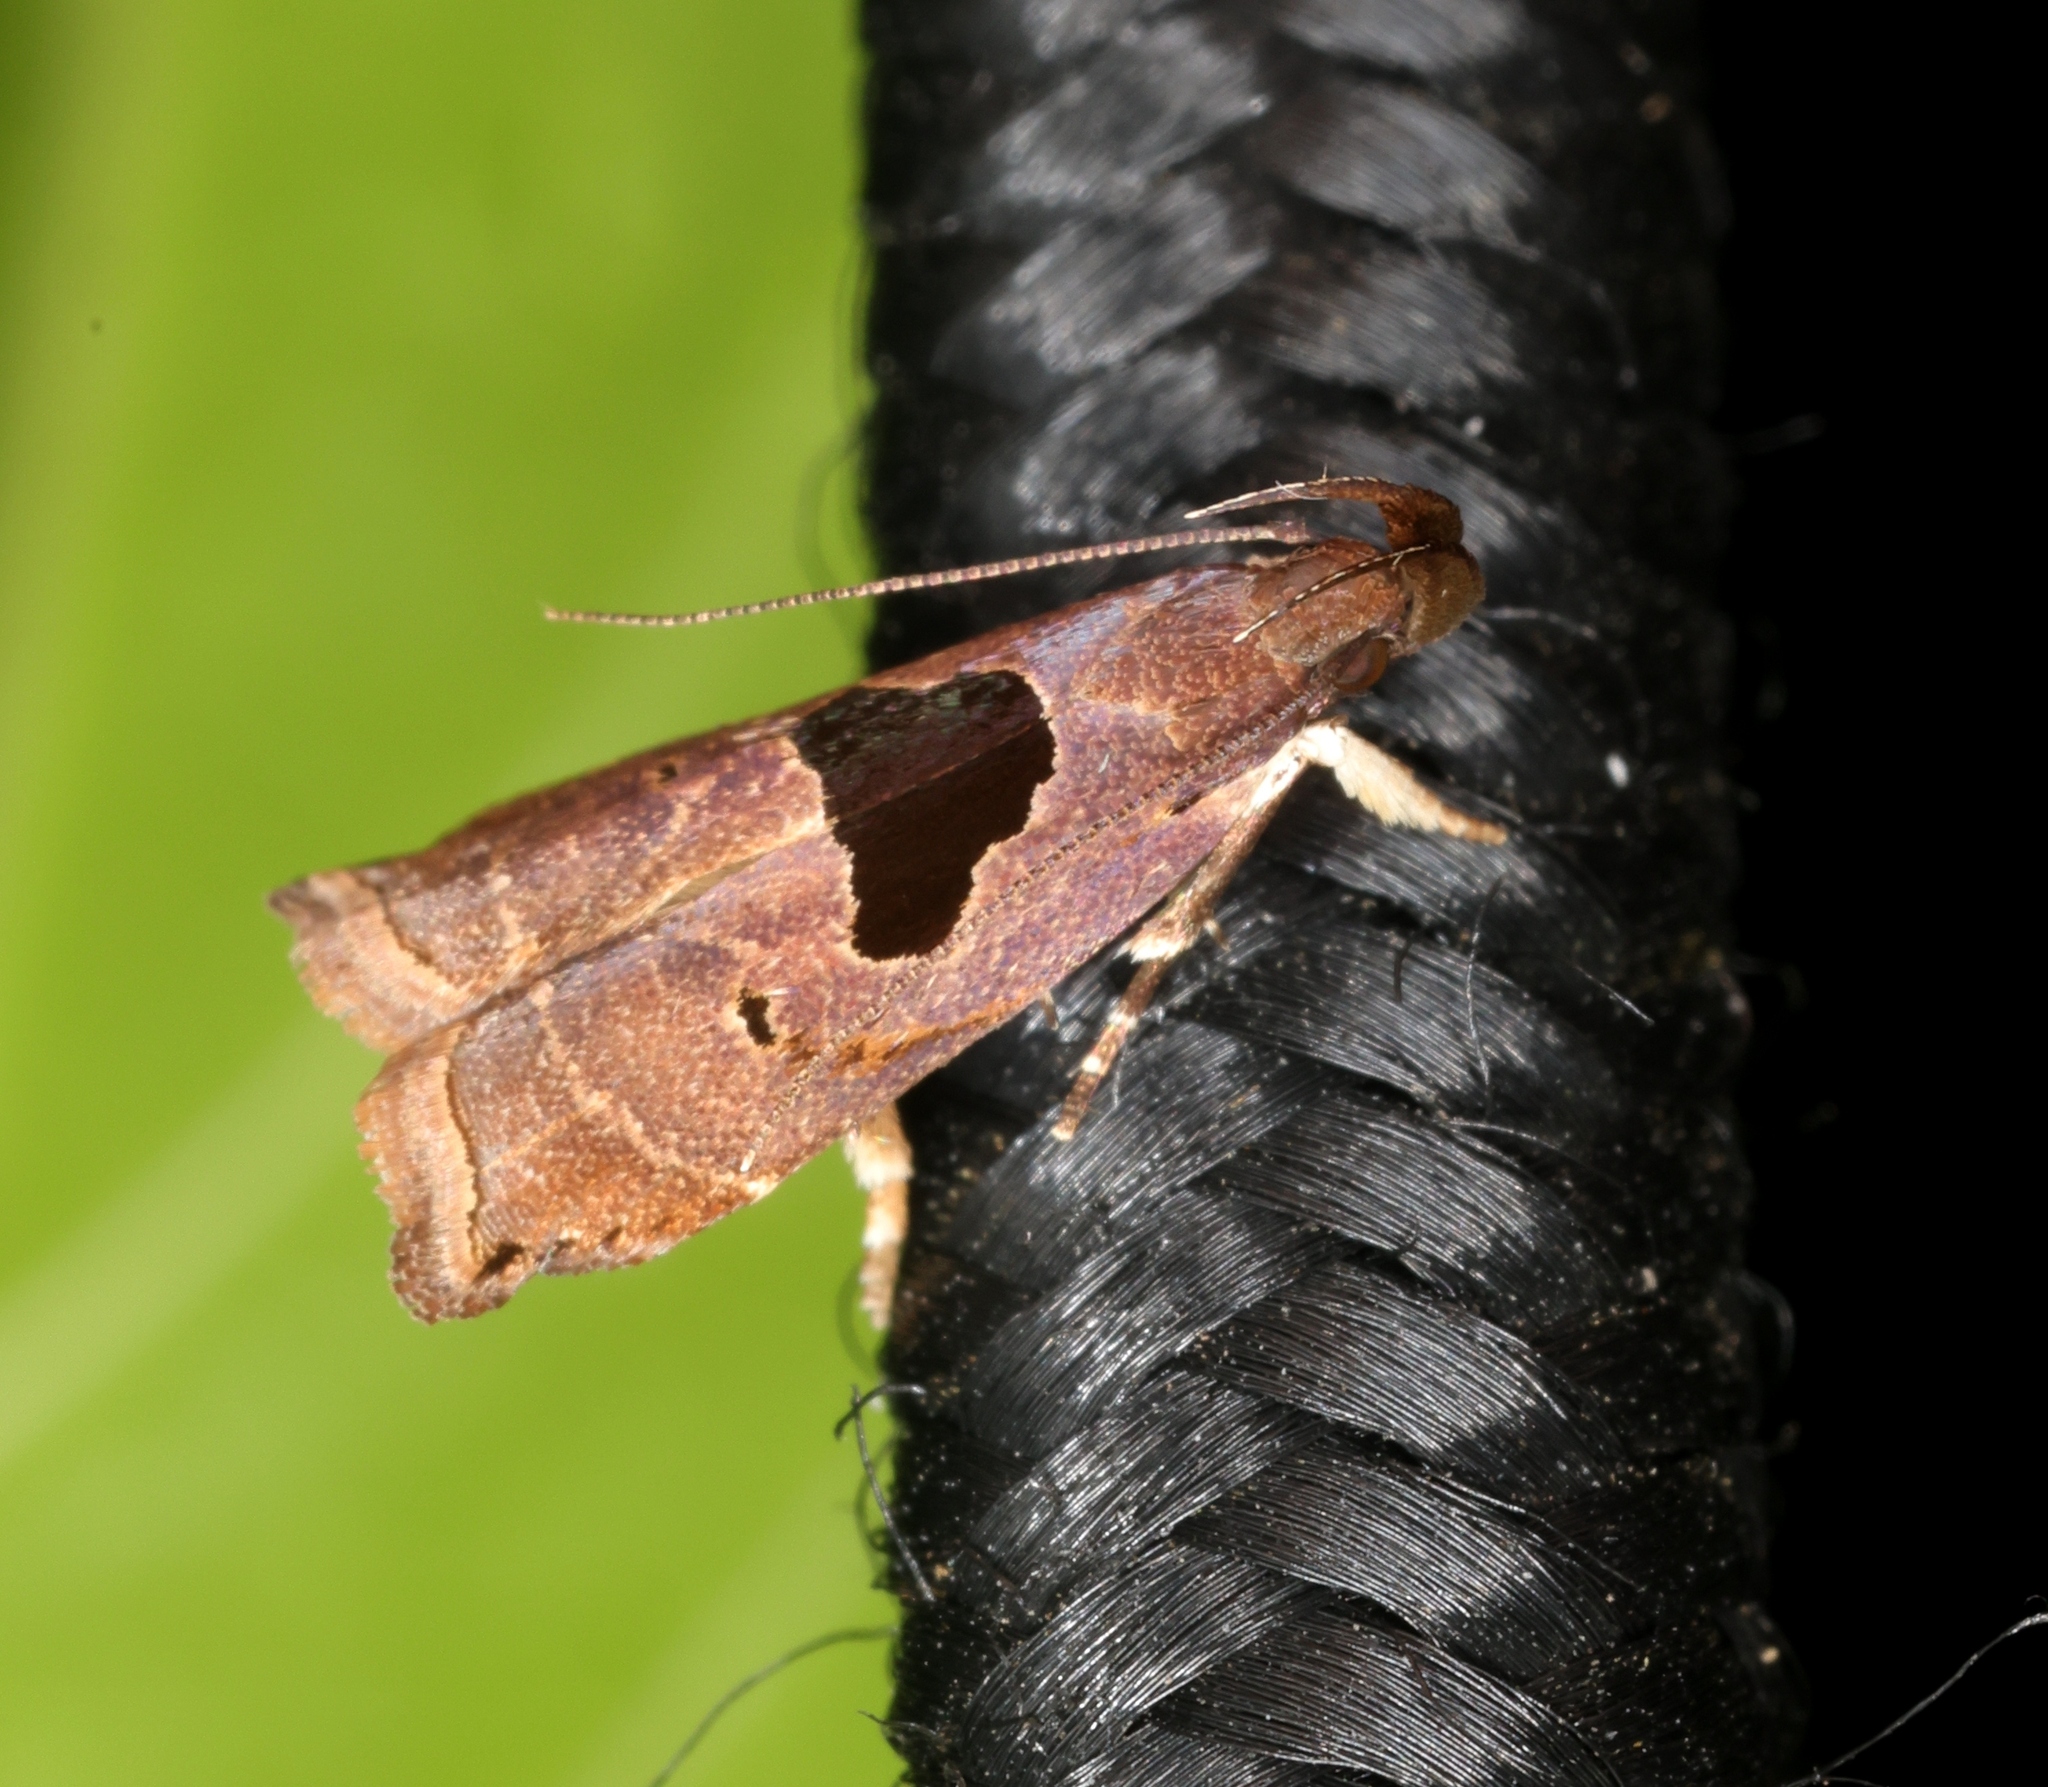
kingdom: Animalia
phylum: Arthropoda
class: Insecta
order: Lepidoptera
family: Gelechiidae
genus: Helcystogramma
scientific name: Helcystogramma hibisci
